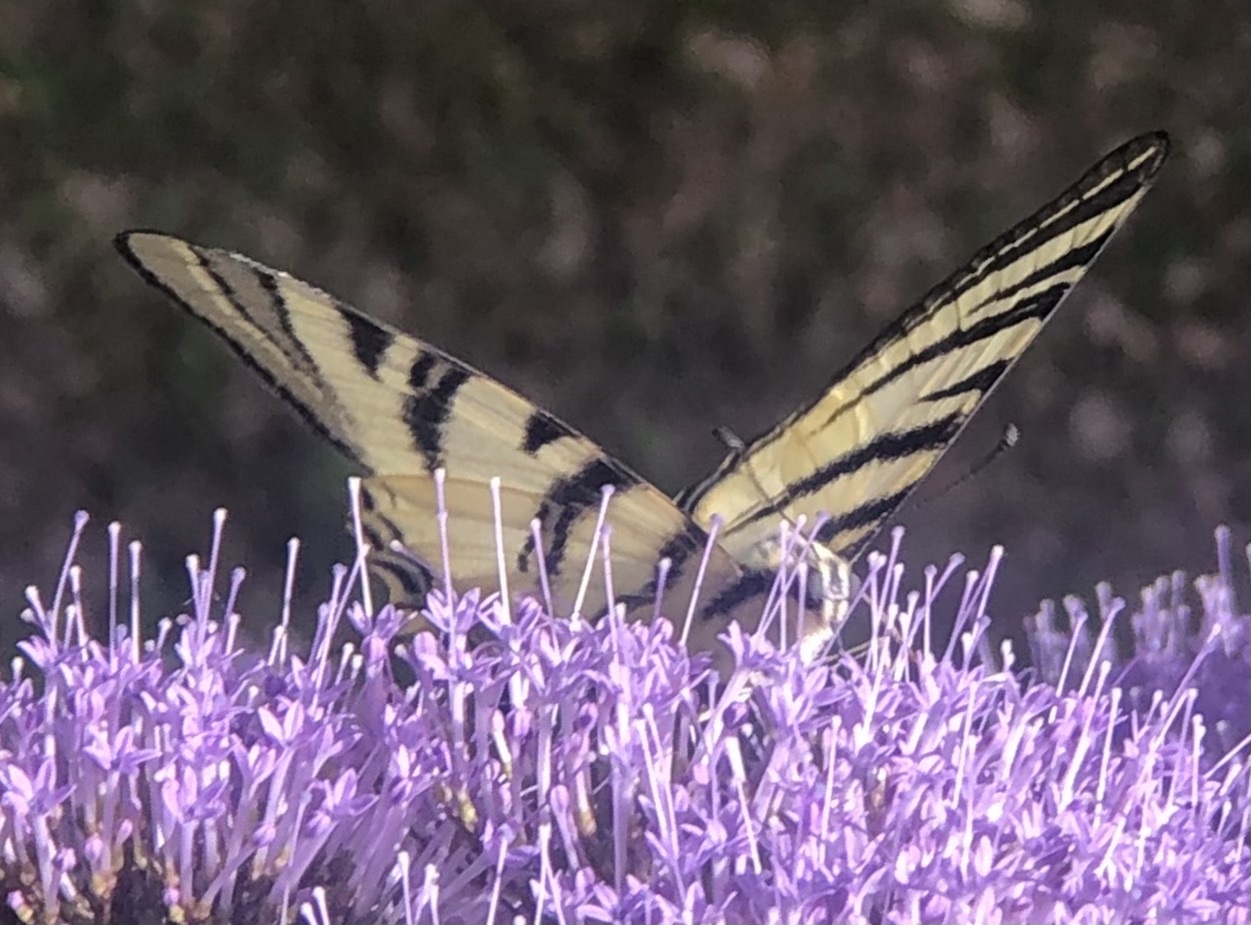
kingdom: Animalia
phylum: Arthropoda
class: Insecta
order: Lepidoptera
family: Papilionidae
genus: Iphiclides
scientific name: Iphiclides podalirius
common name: Scarce swallowtail
